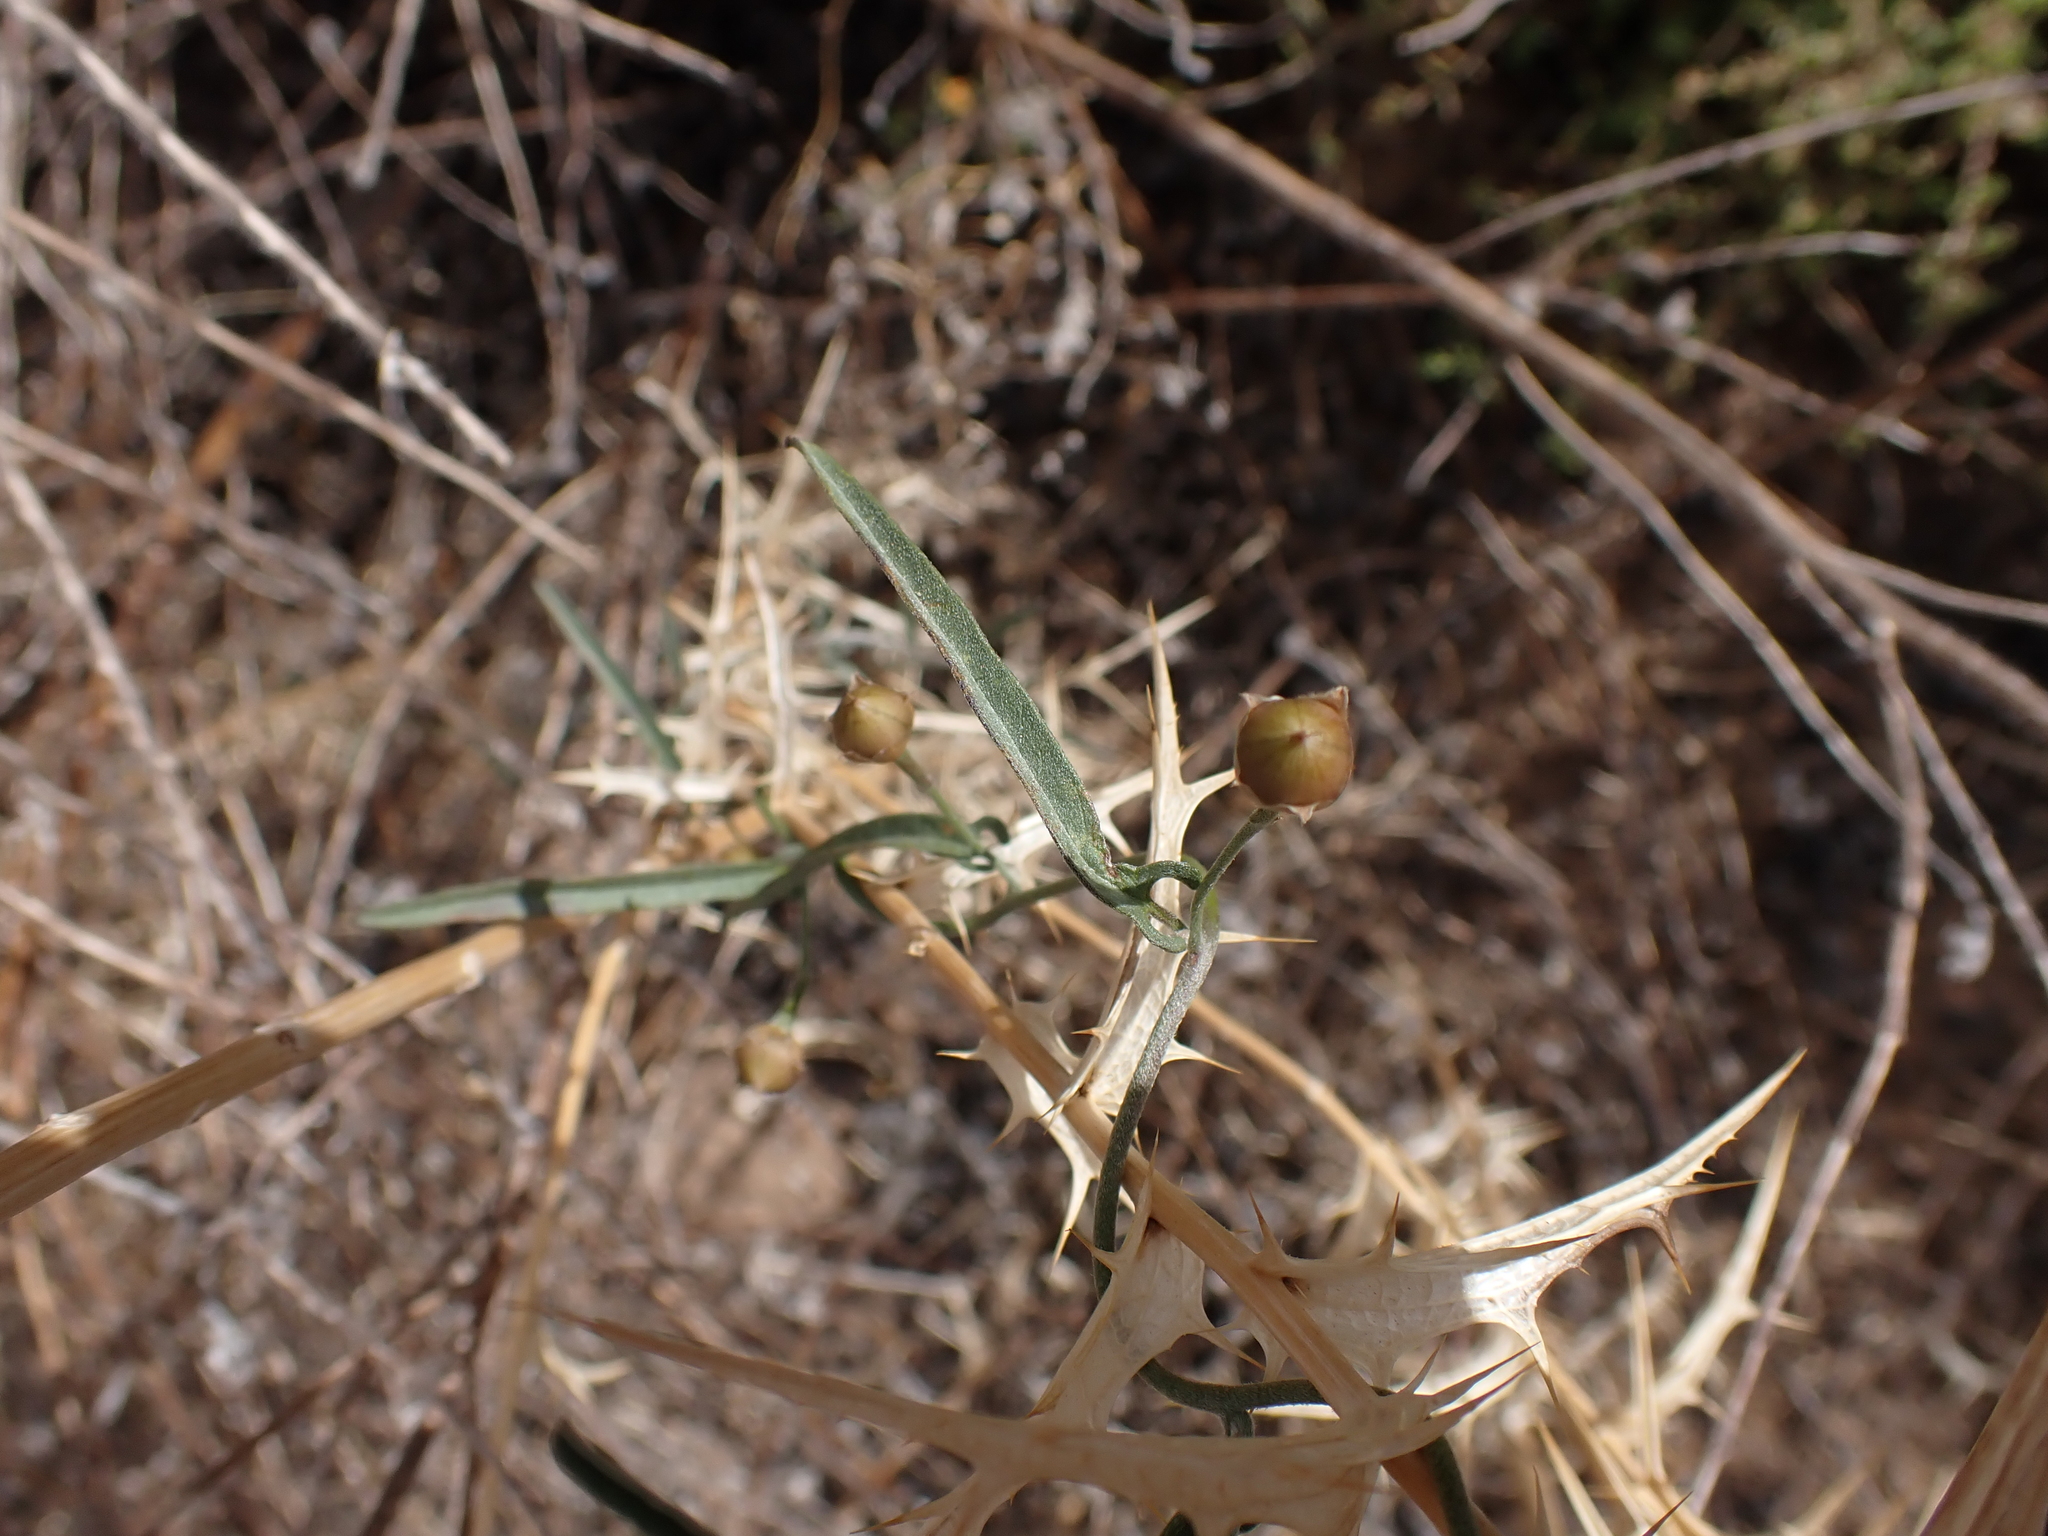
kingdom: Plantae
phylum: Tracheophyta
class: Magnoliopsida
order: Solanales
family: Convolvulaceae
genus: Convolvulus
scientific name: Convolvulus remotus
